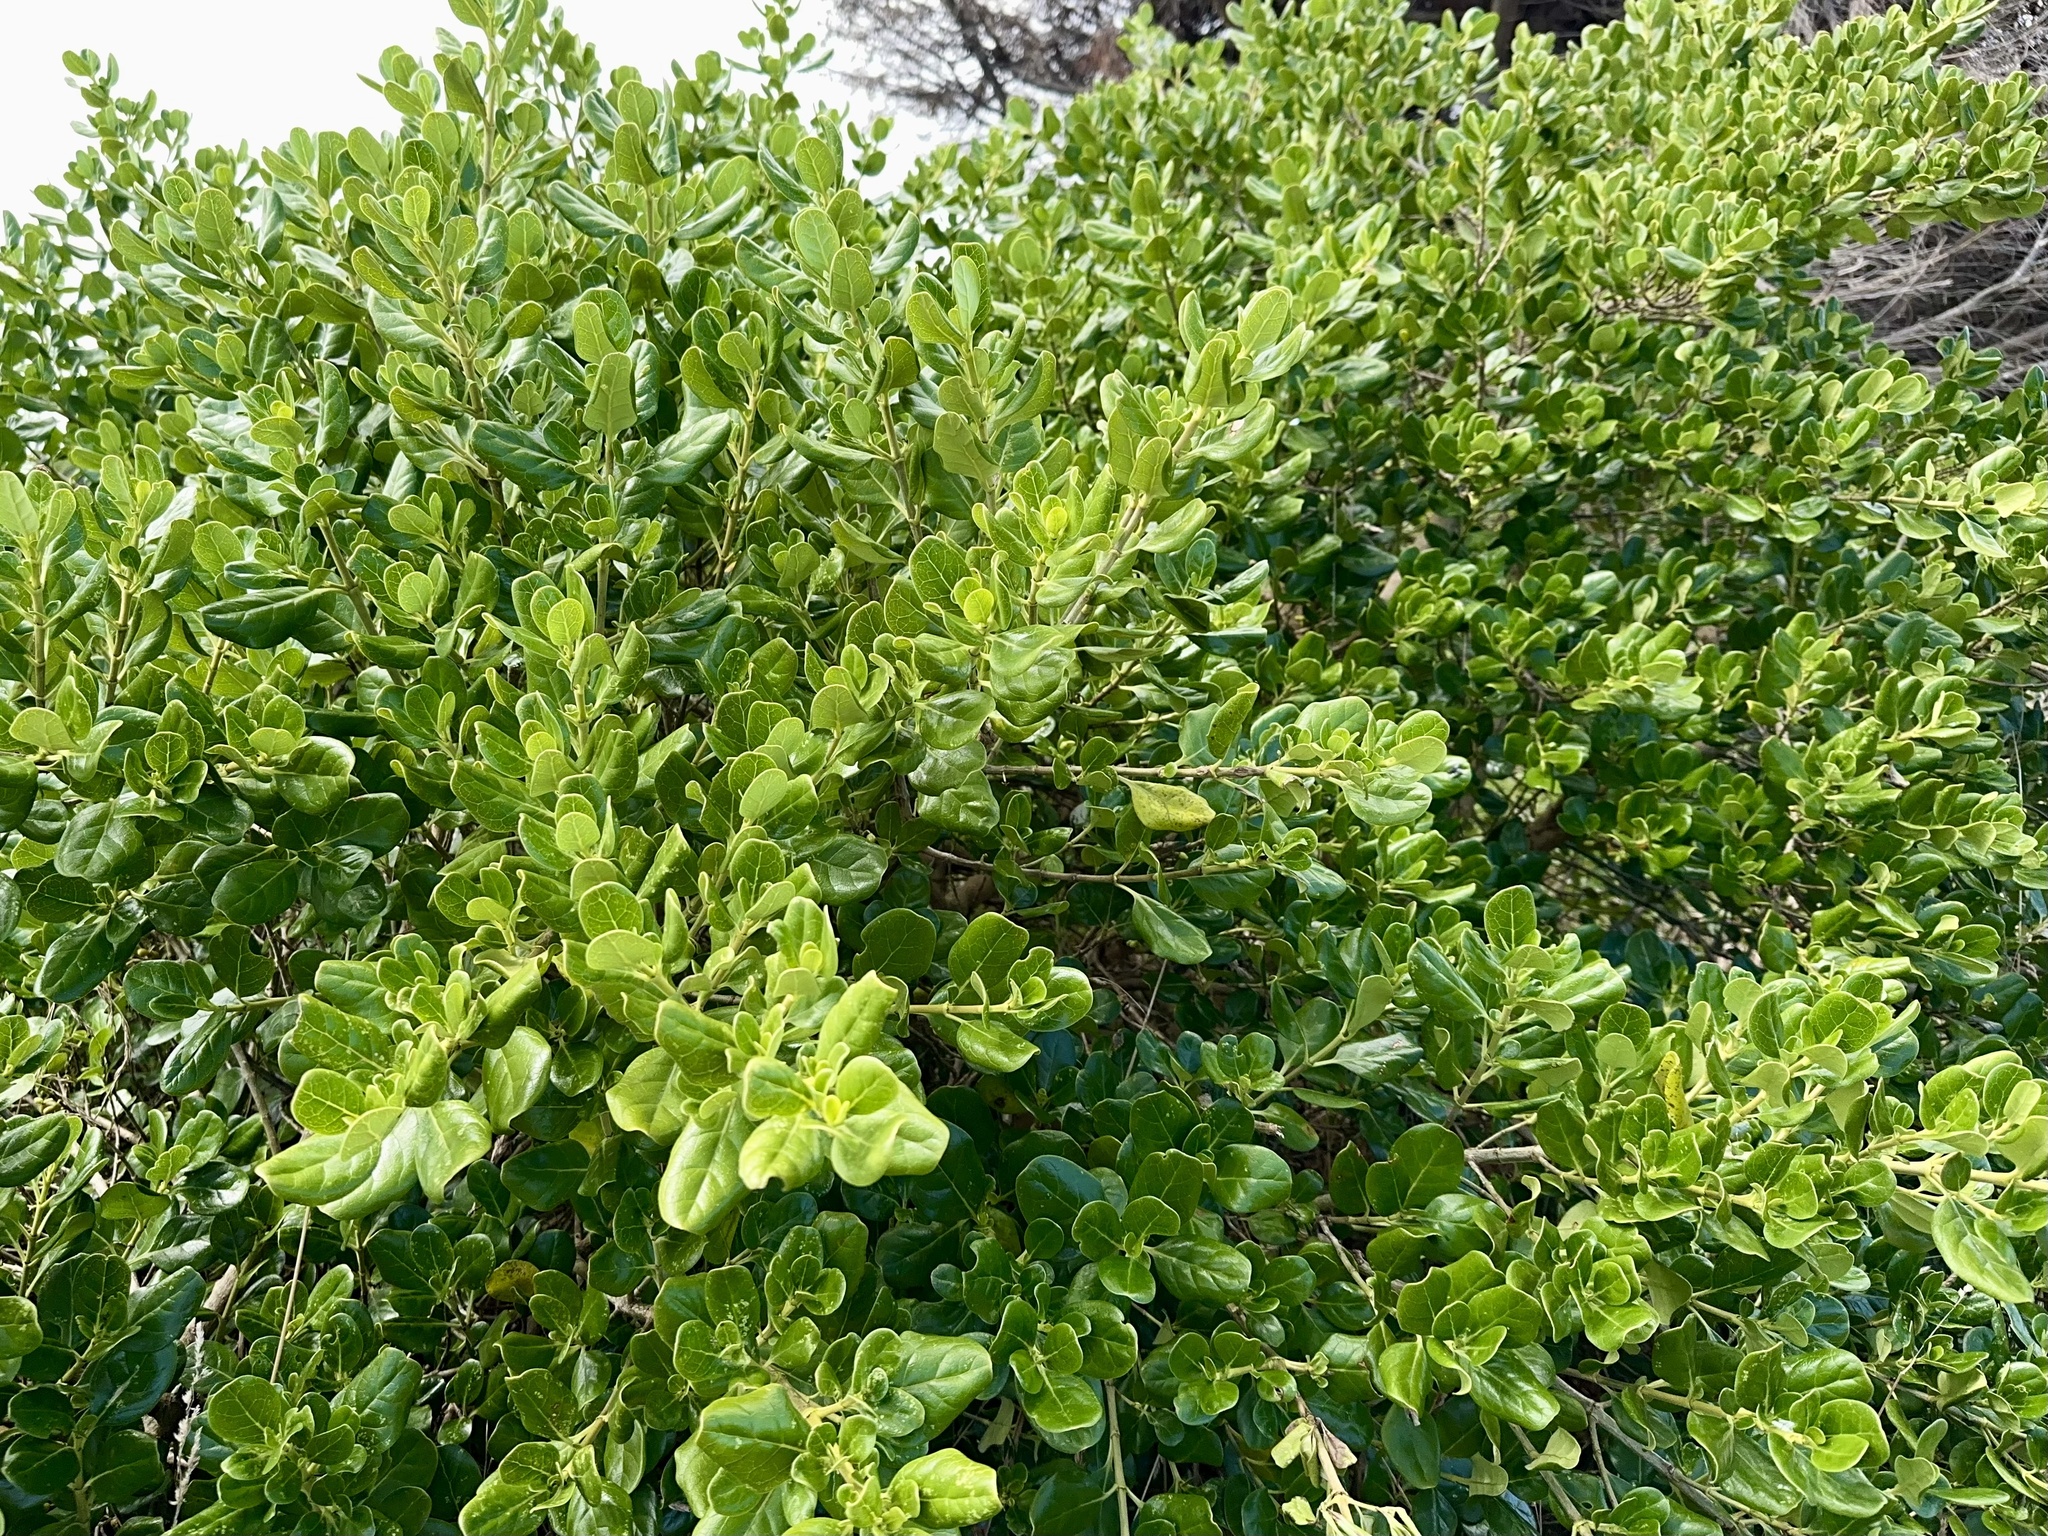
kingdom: Plantae
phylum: Tracheophyta
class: Magnoliopsida
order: Gentianales
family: Rubiaceae
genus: Coprosma
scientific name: Coprosma repens
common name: Tree bedstraw
